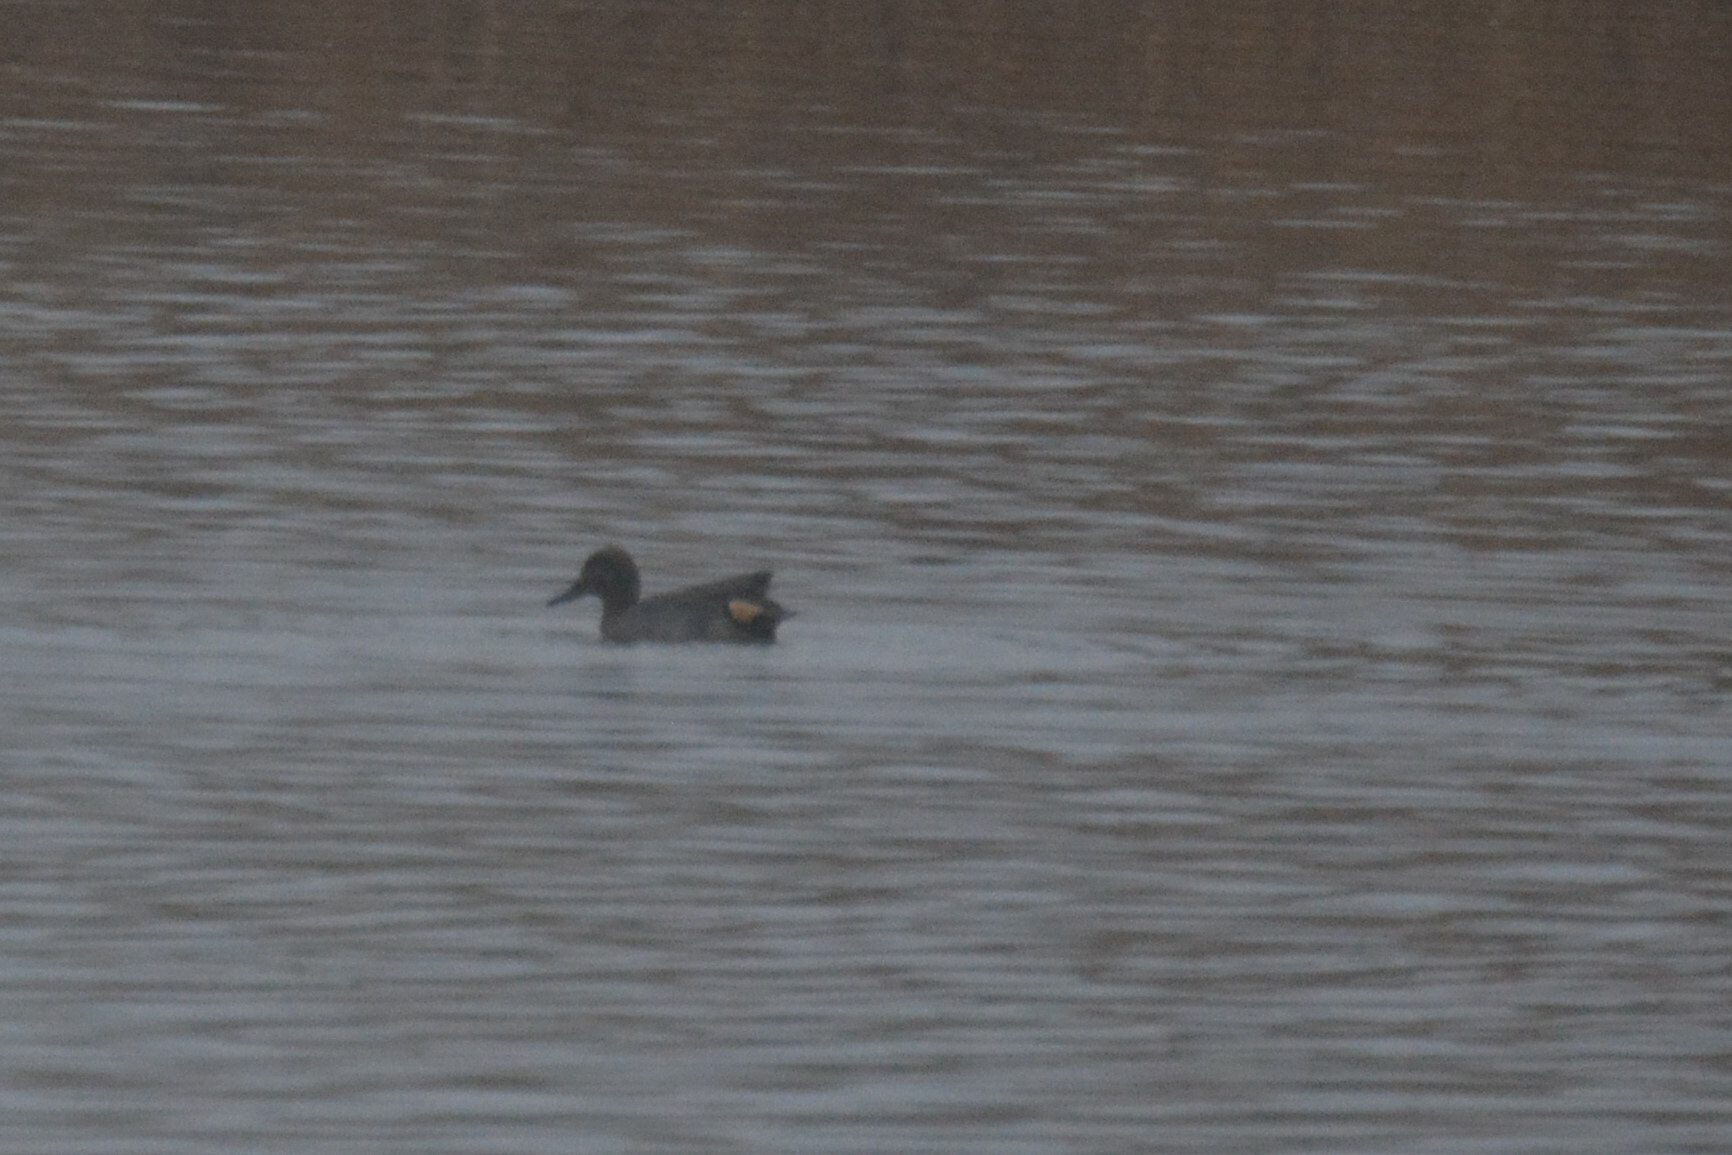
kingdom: Animalia
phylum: Chordata
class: Aves
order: Anseriformes
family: Anatidae
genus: Anas
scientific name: Anas crecca
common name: Eurasian teal
